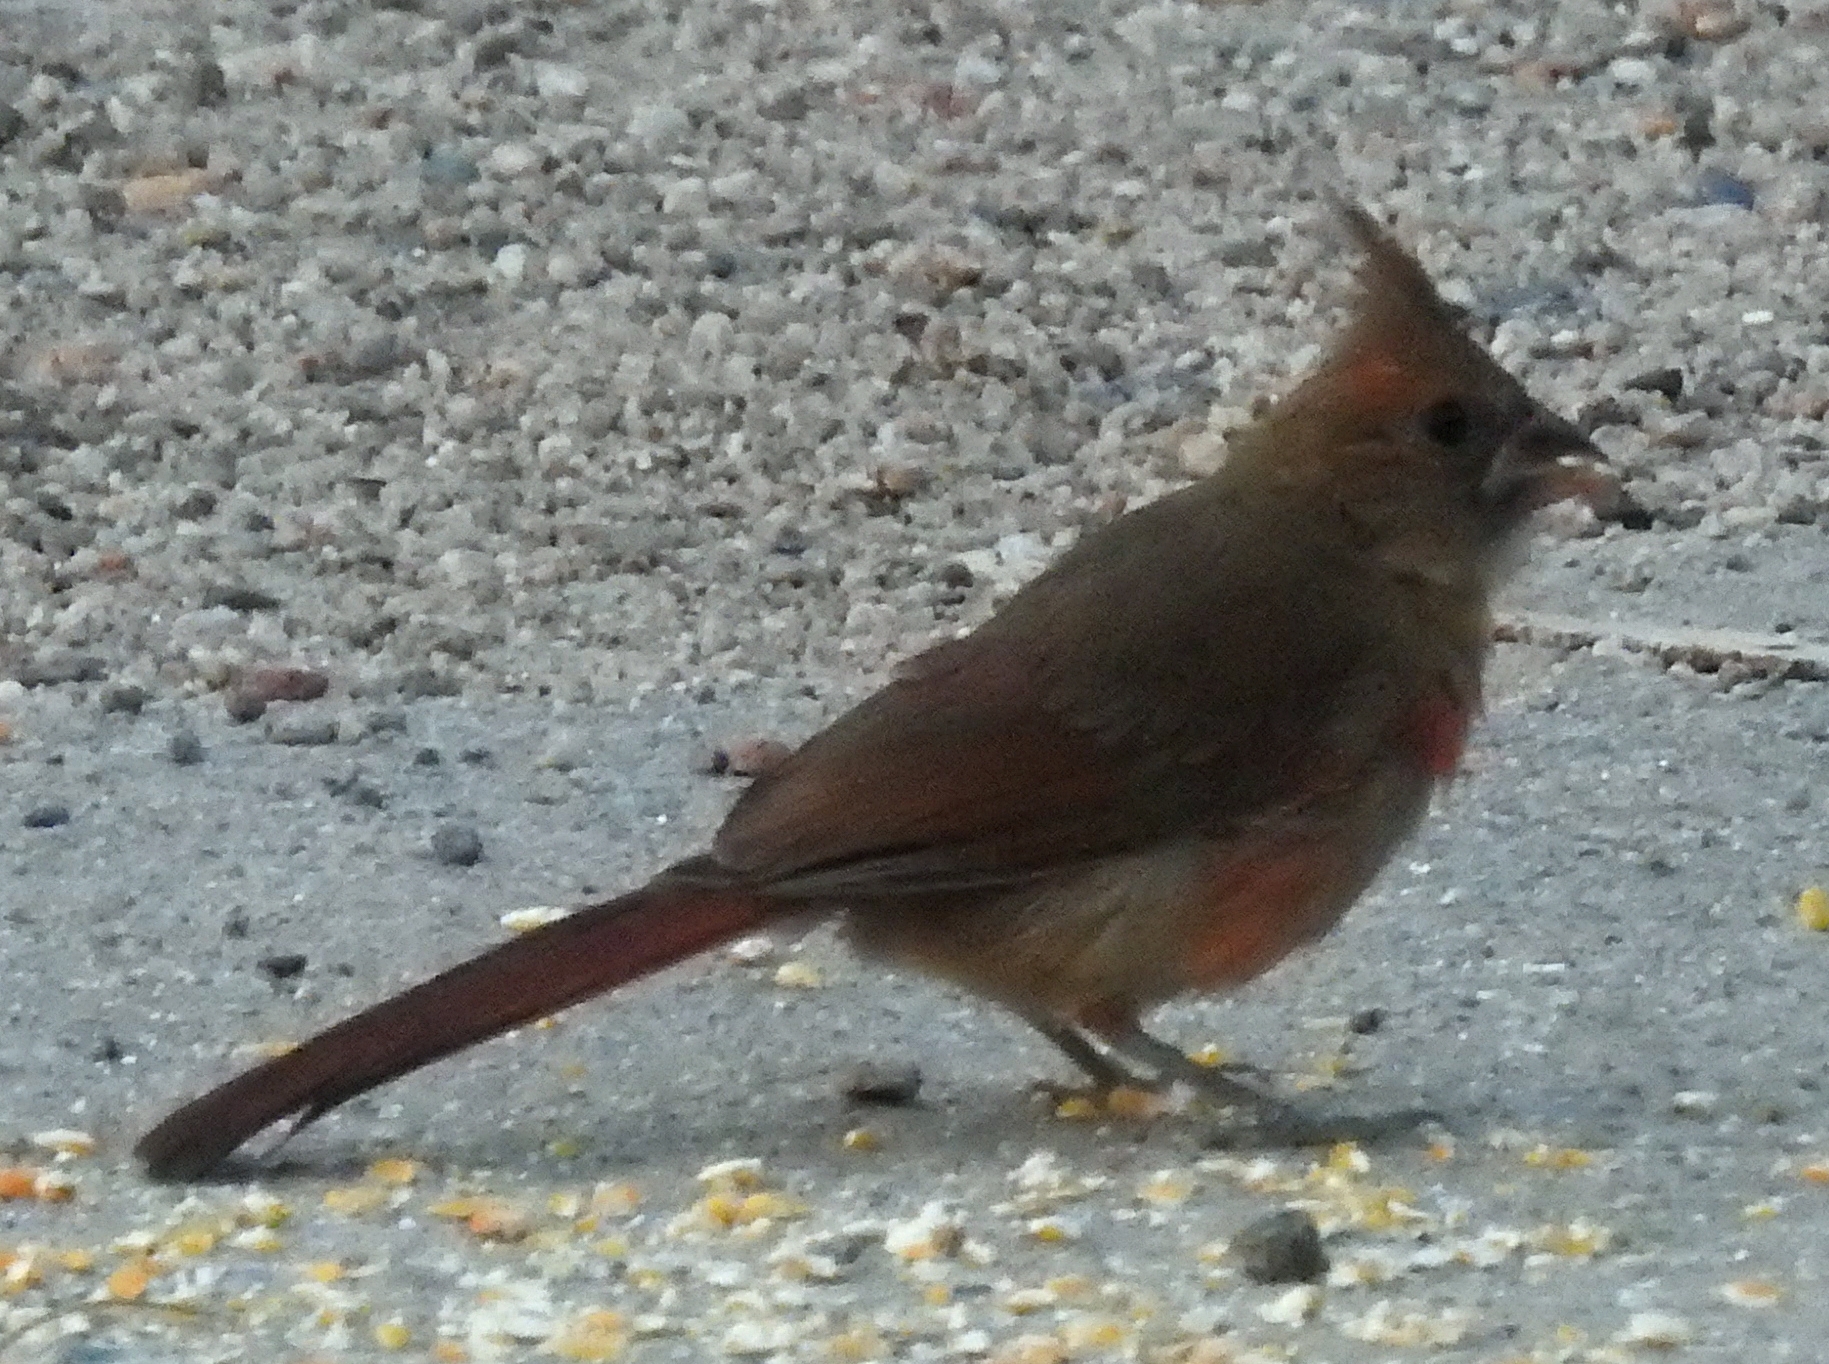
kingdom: Animalia
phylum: Chordata
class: Aves
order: Passeriformes
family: Cardinalidae
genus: Cardinalis
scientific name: Cardinalis cardinalis
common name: Northern cardinal
